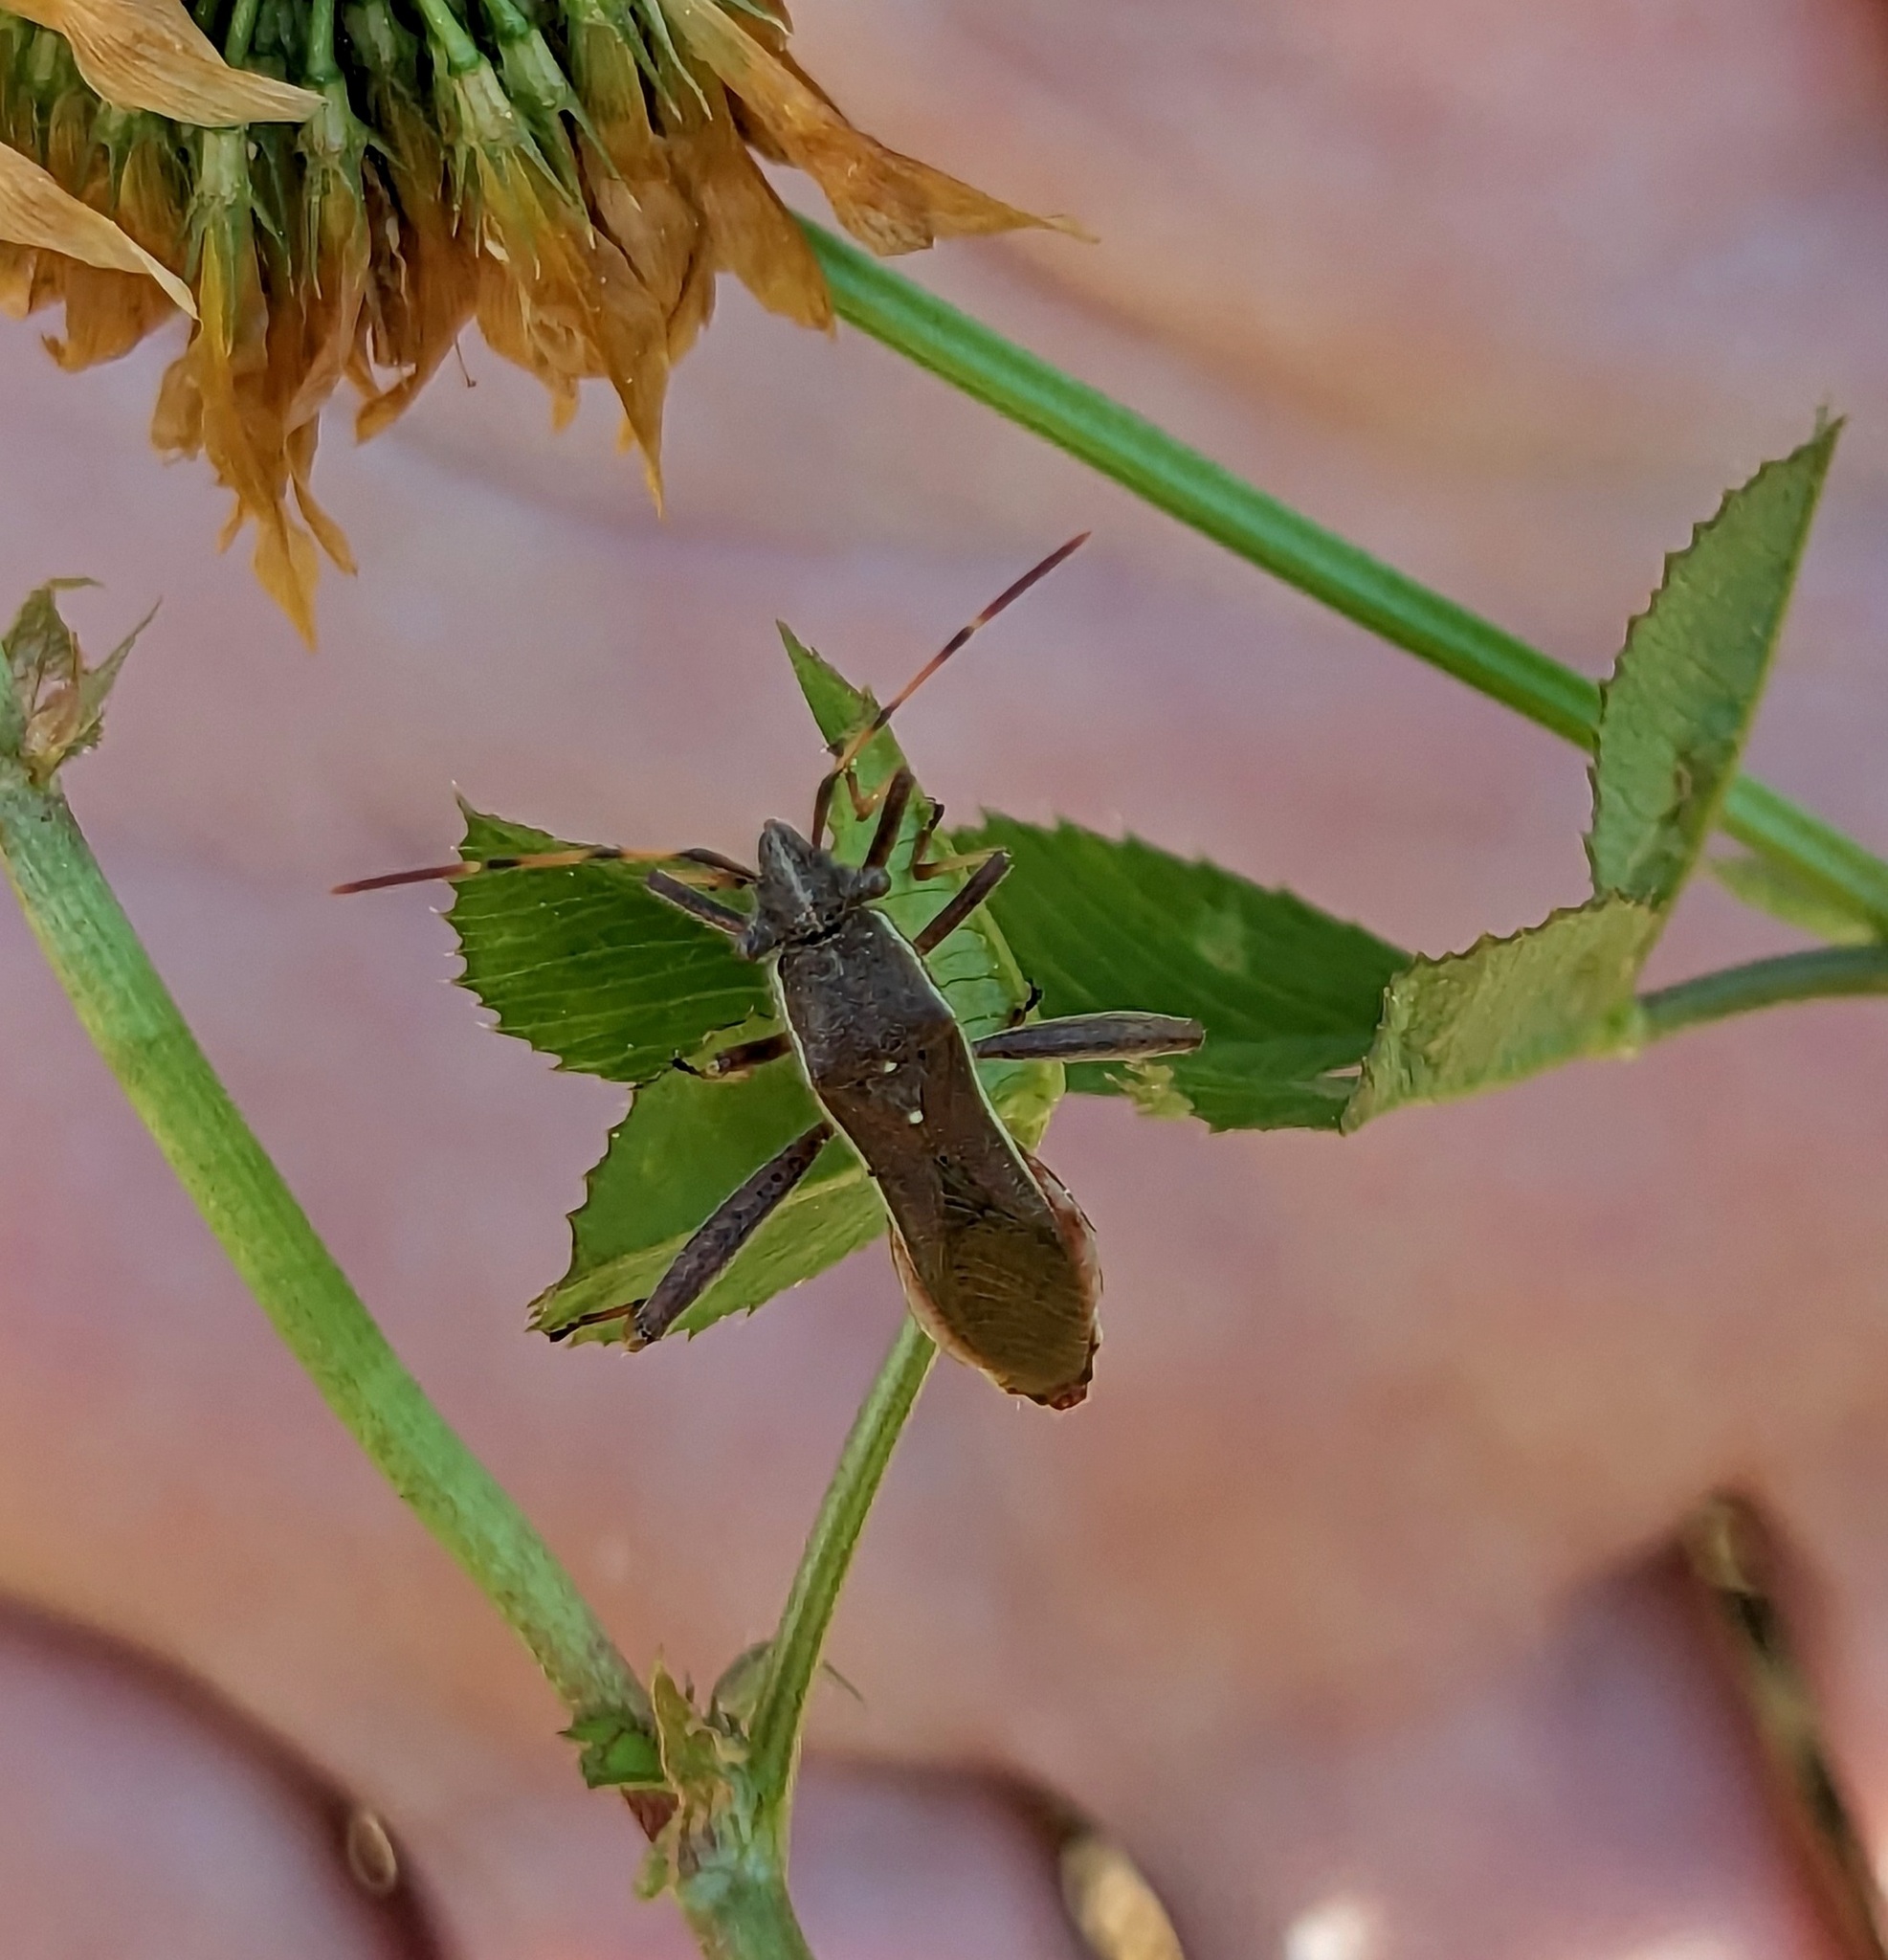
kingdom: Animalia
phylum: Arthropoda
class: Insecta
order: Hemiptera
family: Alydidae
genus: Camptopus
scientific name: Camptopus lateralis
